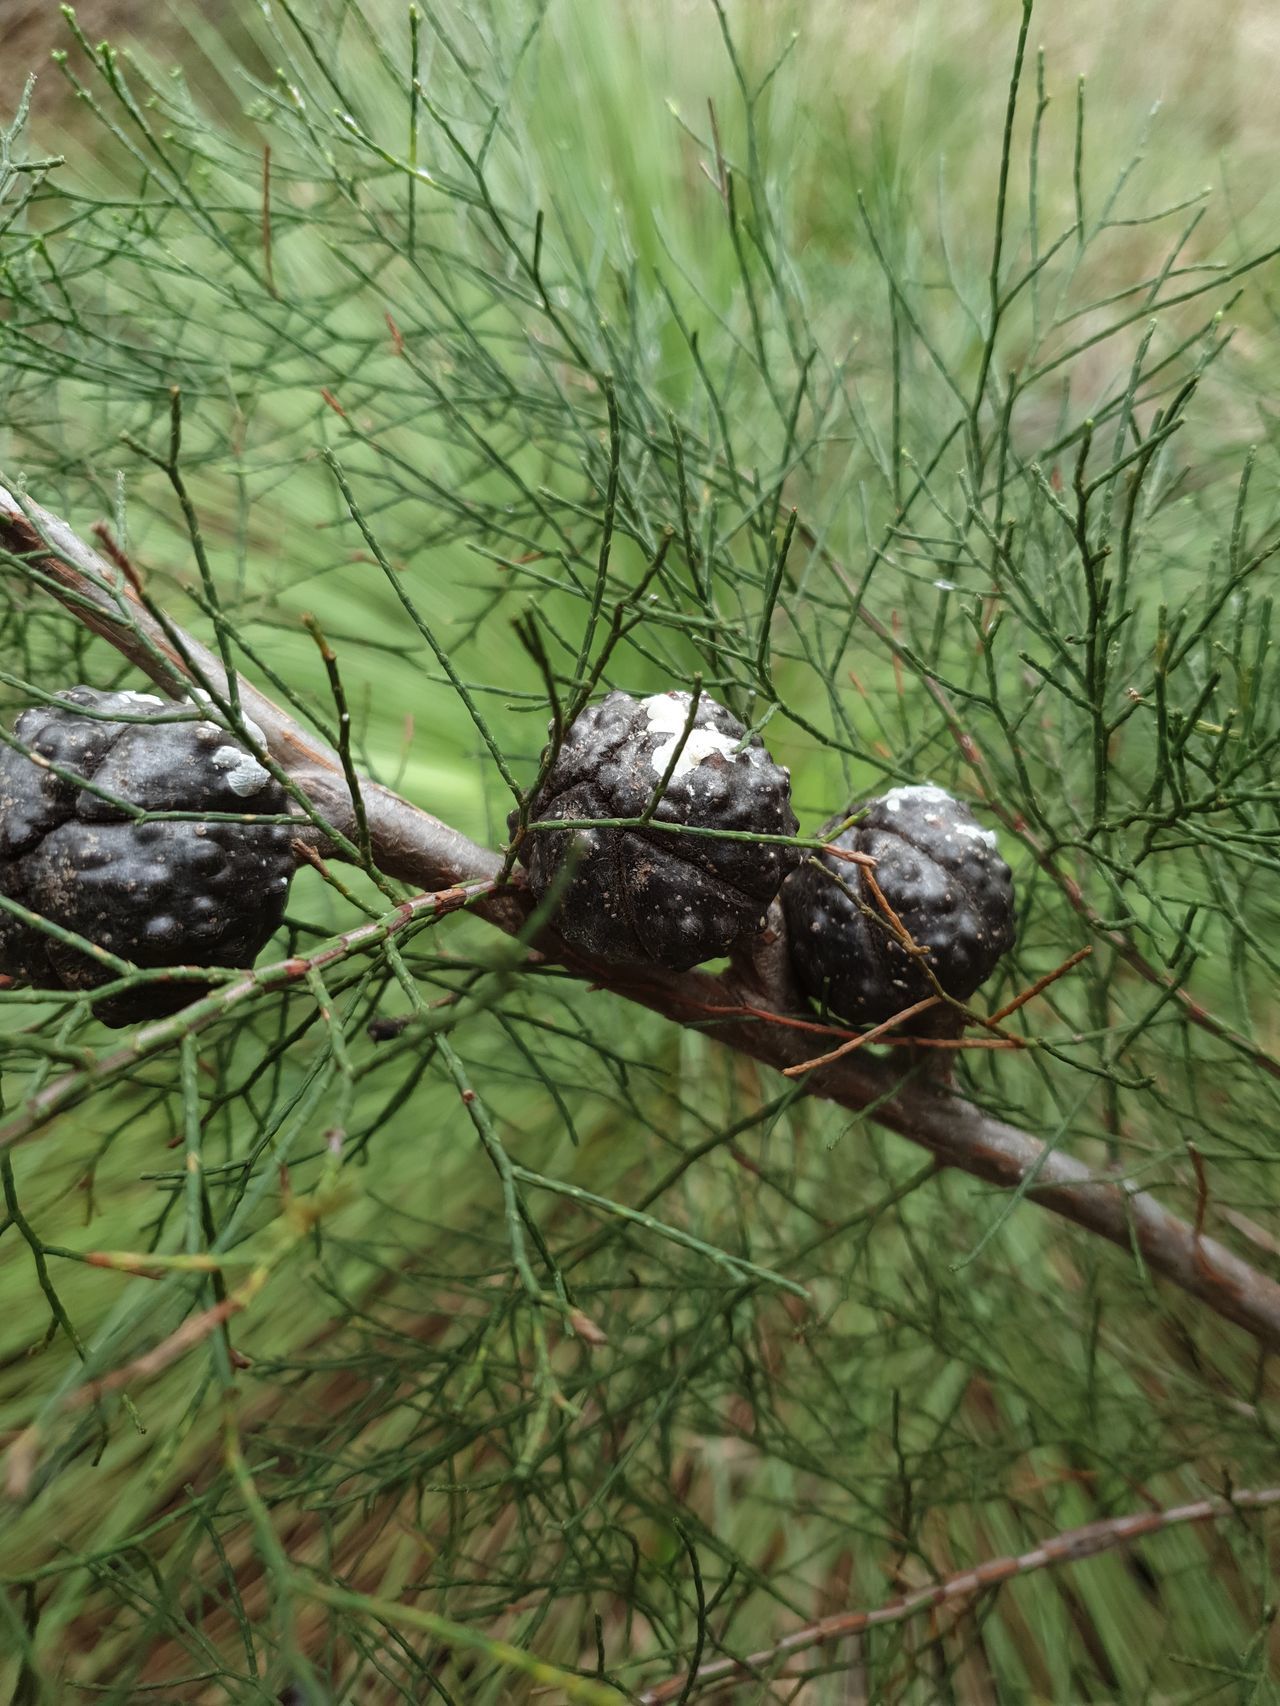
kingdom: Plantae
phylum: Tracheophyta
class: Pinopsida
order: Pinales
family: Cupressaceae
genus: Callitris
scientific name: Callitris preissii
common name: Mallee pine
